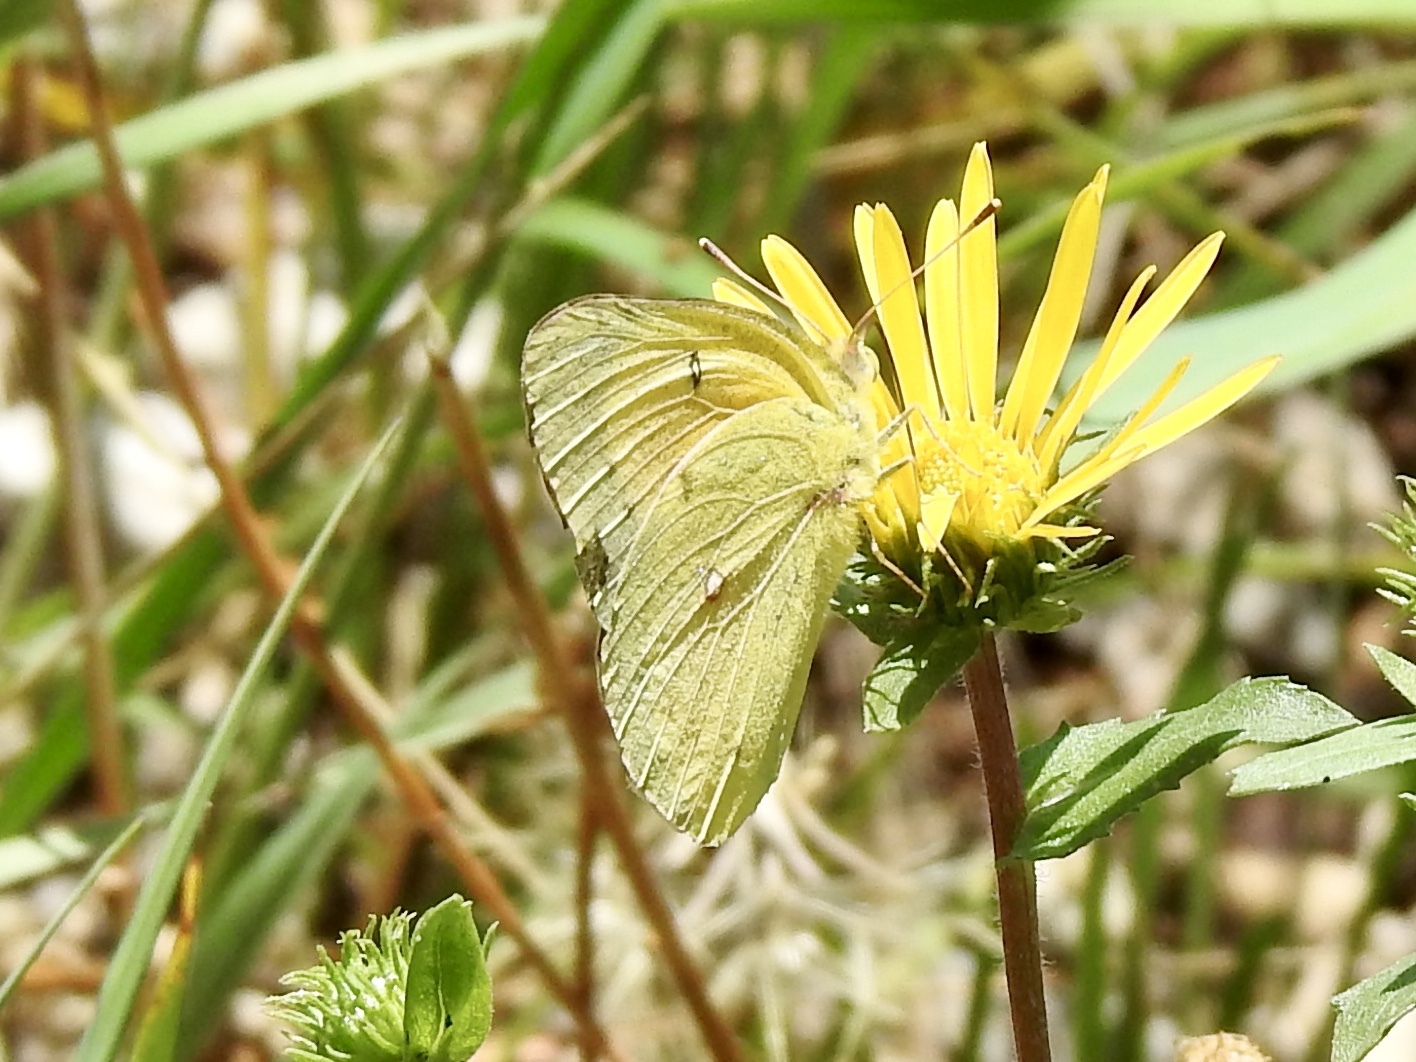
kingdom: Animalia
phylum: Arthropoda
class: Insecta
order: Lepidoptera
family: Pieridae
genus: Colias
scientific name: Colias eurytheme
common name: Alfalfa butterfly
